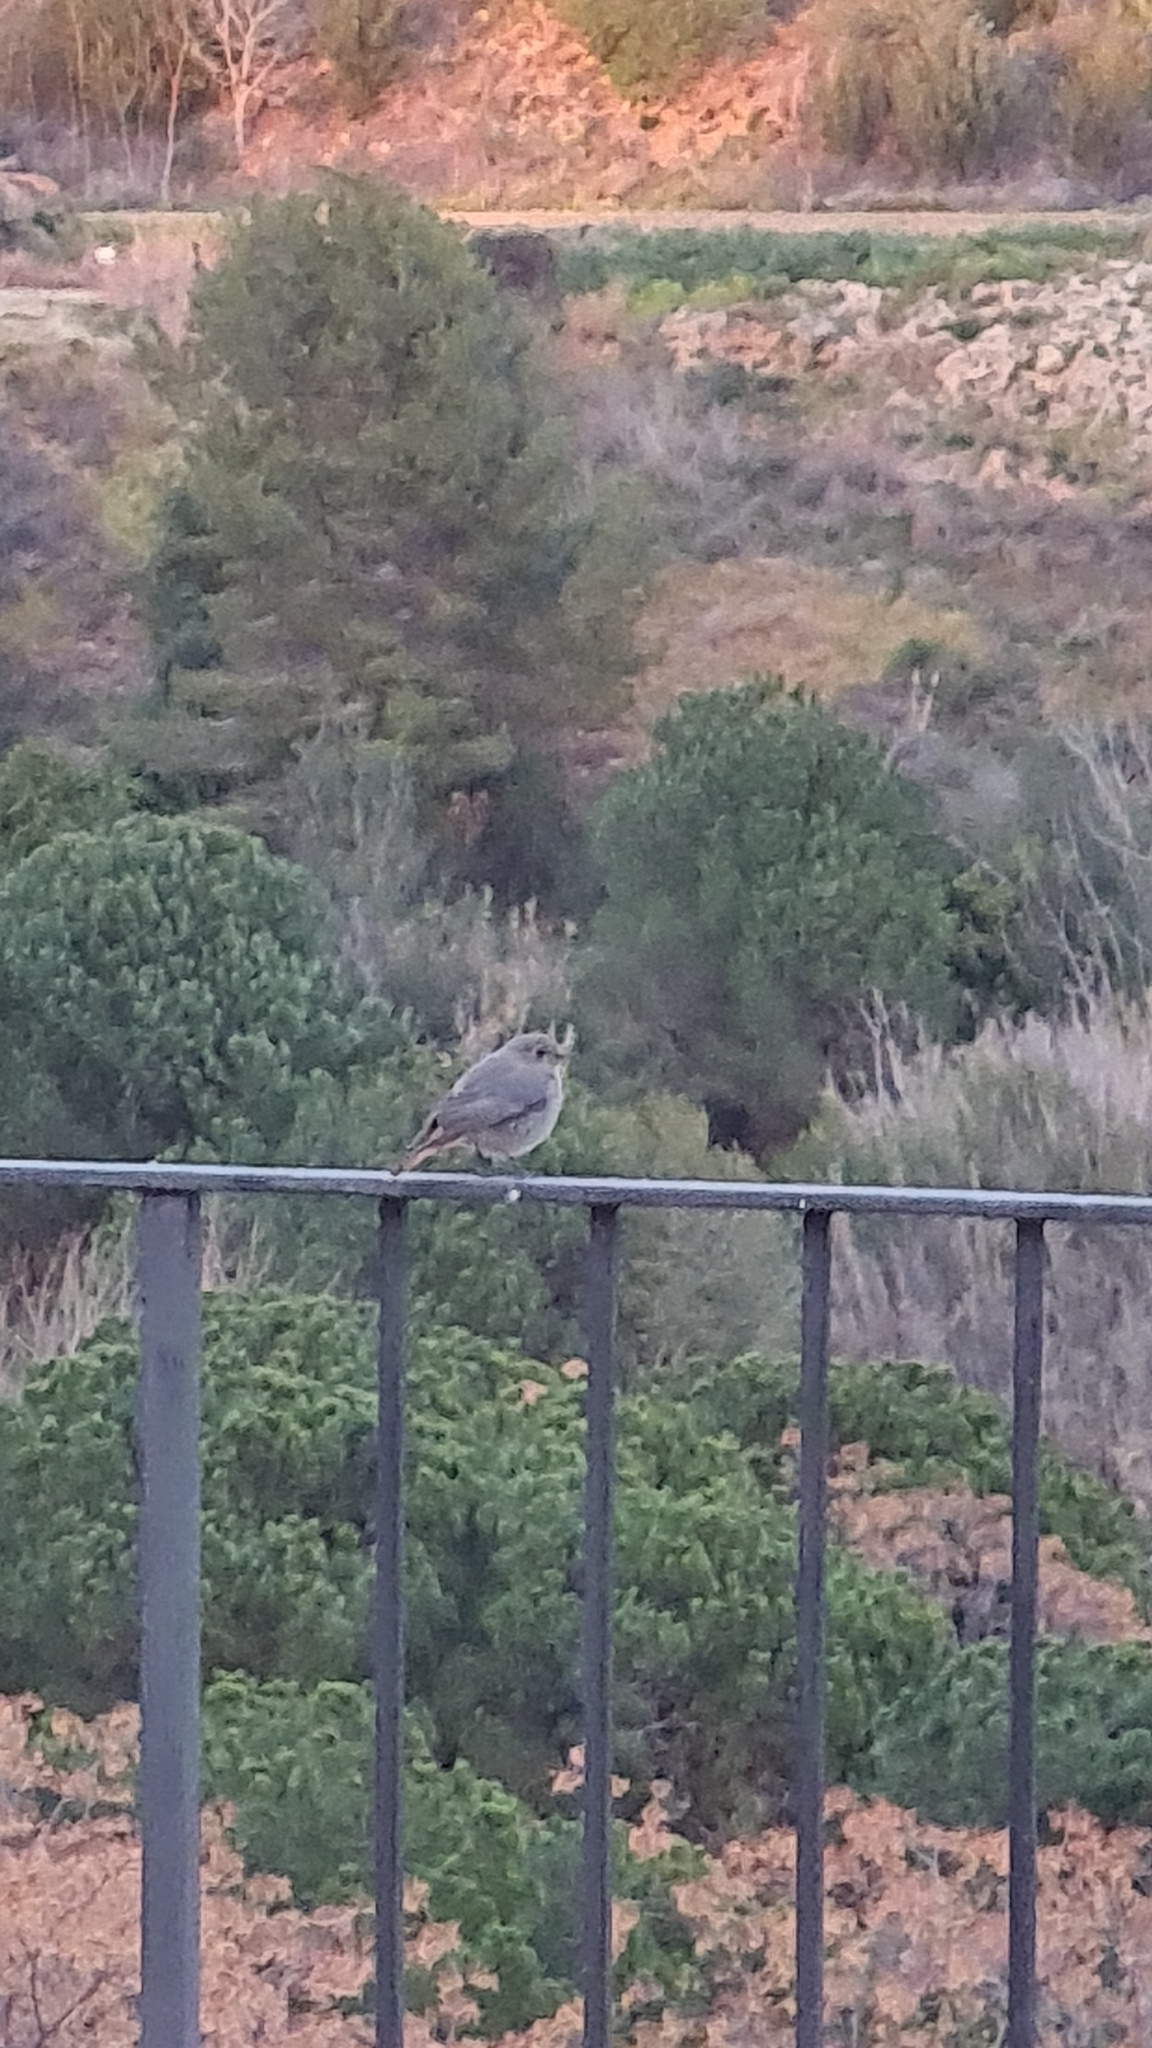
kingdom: Animalia
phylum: Chordata
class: Aves
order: Passeriformes
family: Muscicapidae
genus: Phoenicurus
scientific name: Phoenicurus ochruros
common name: Black redstart
